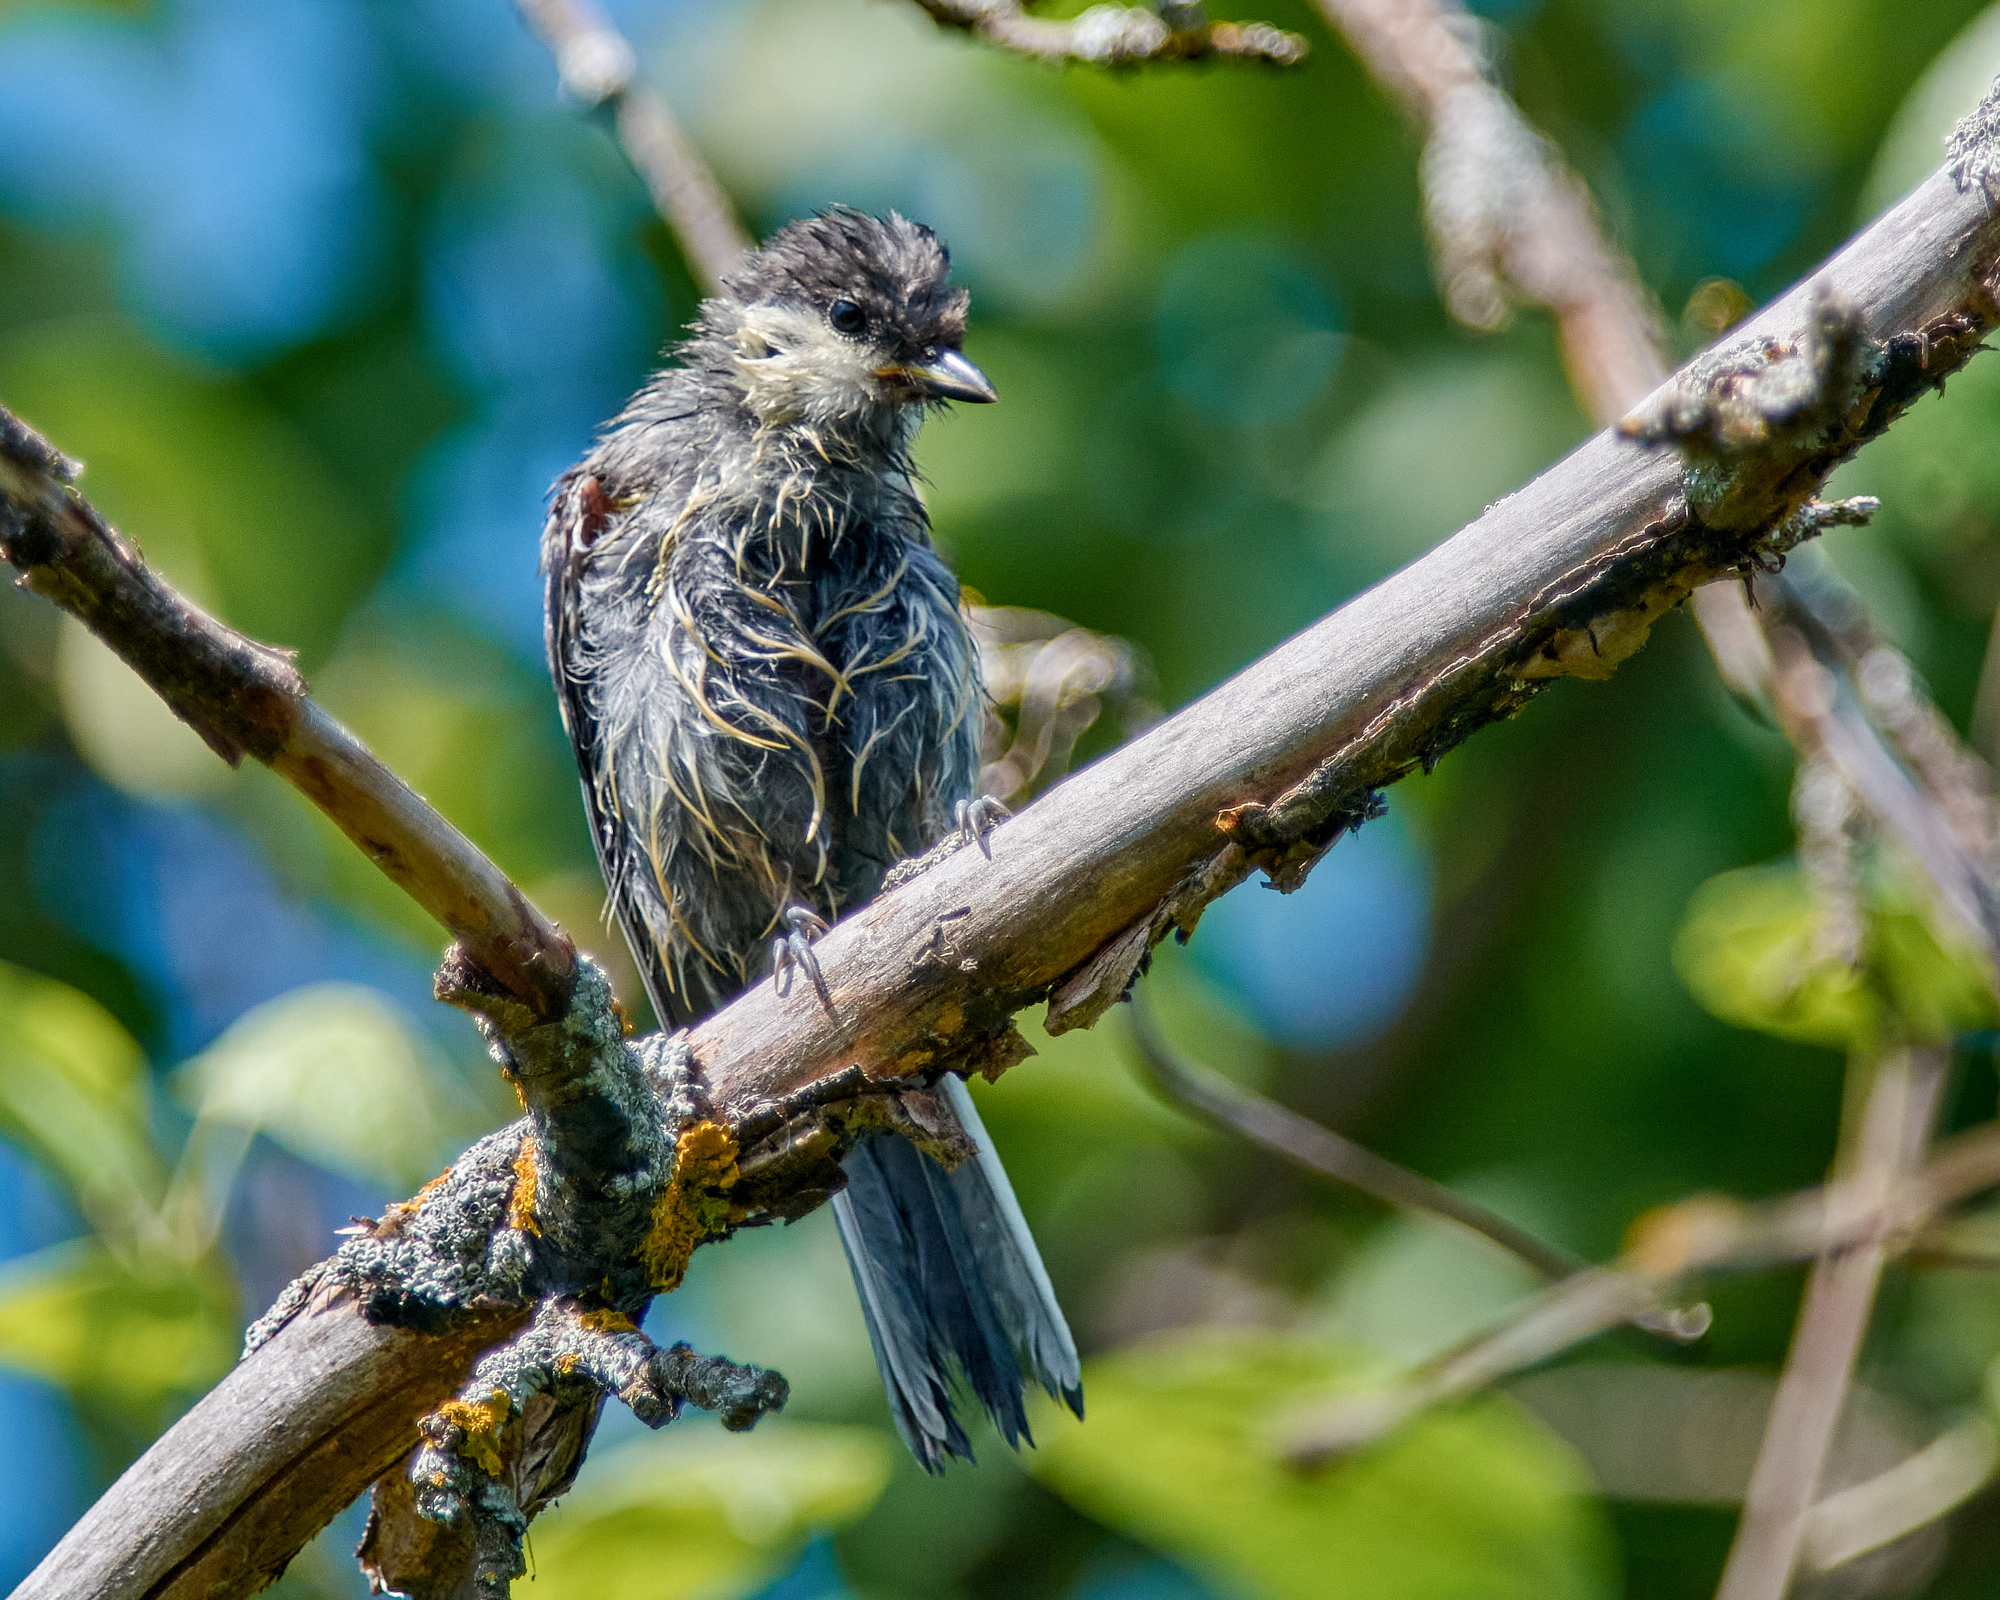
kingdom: Animalia
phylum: Chordata
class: Aves
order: Passeriformes
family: Paridae
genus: Parus
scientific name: Parus major
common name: Great tit
